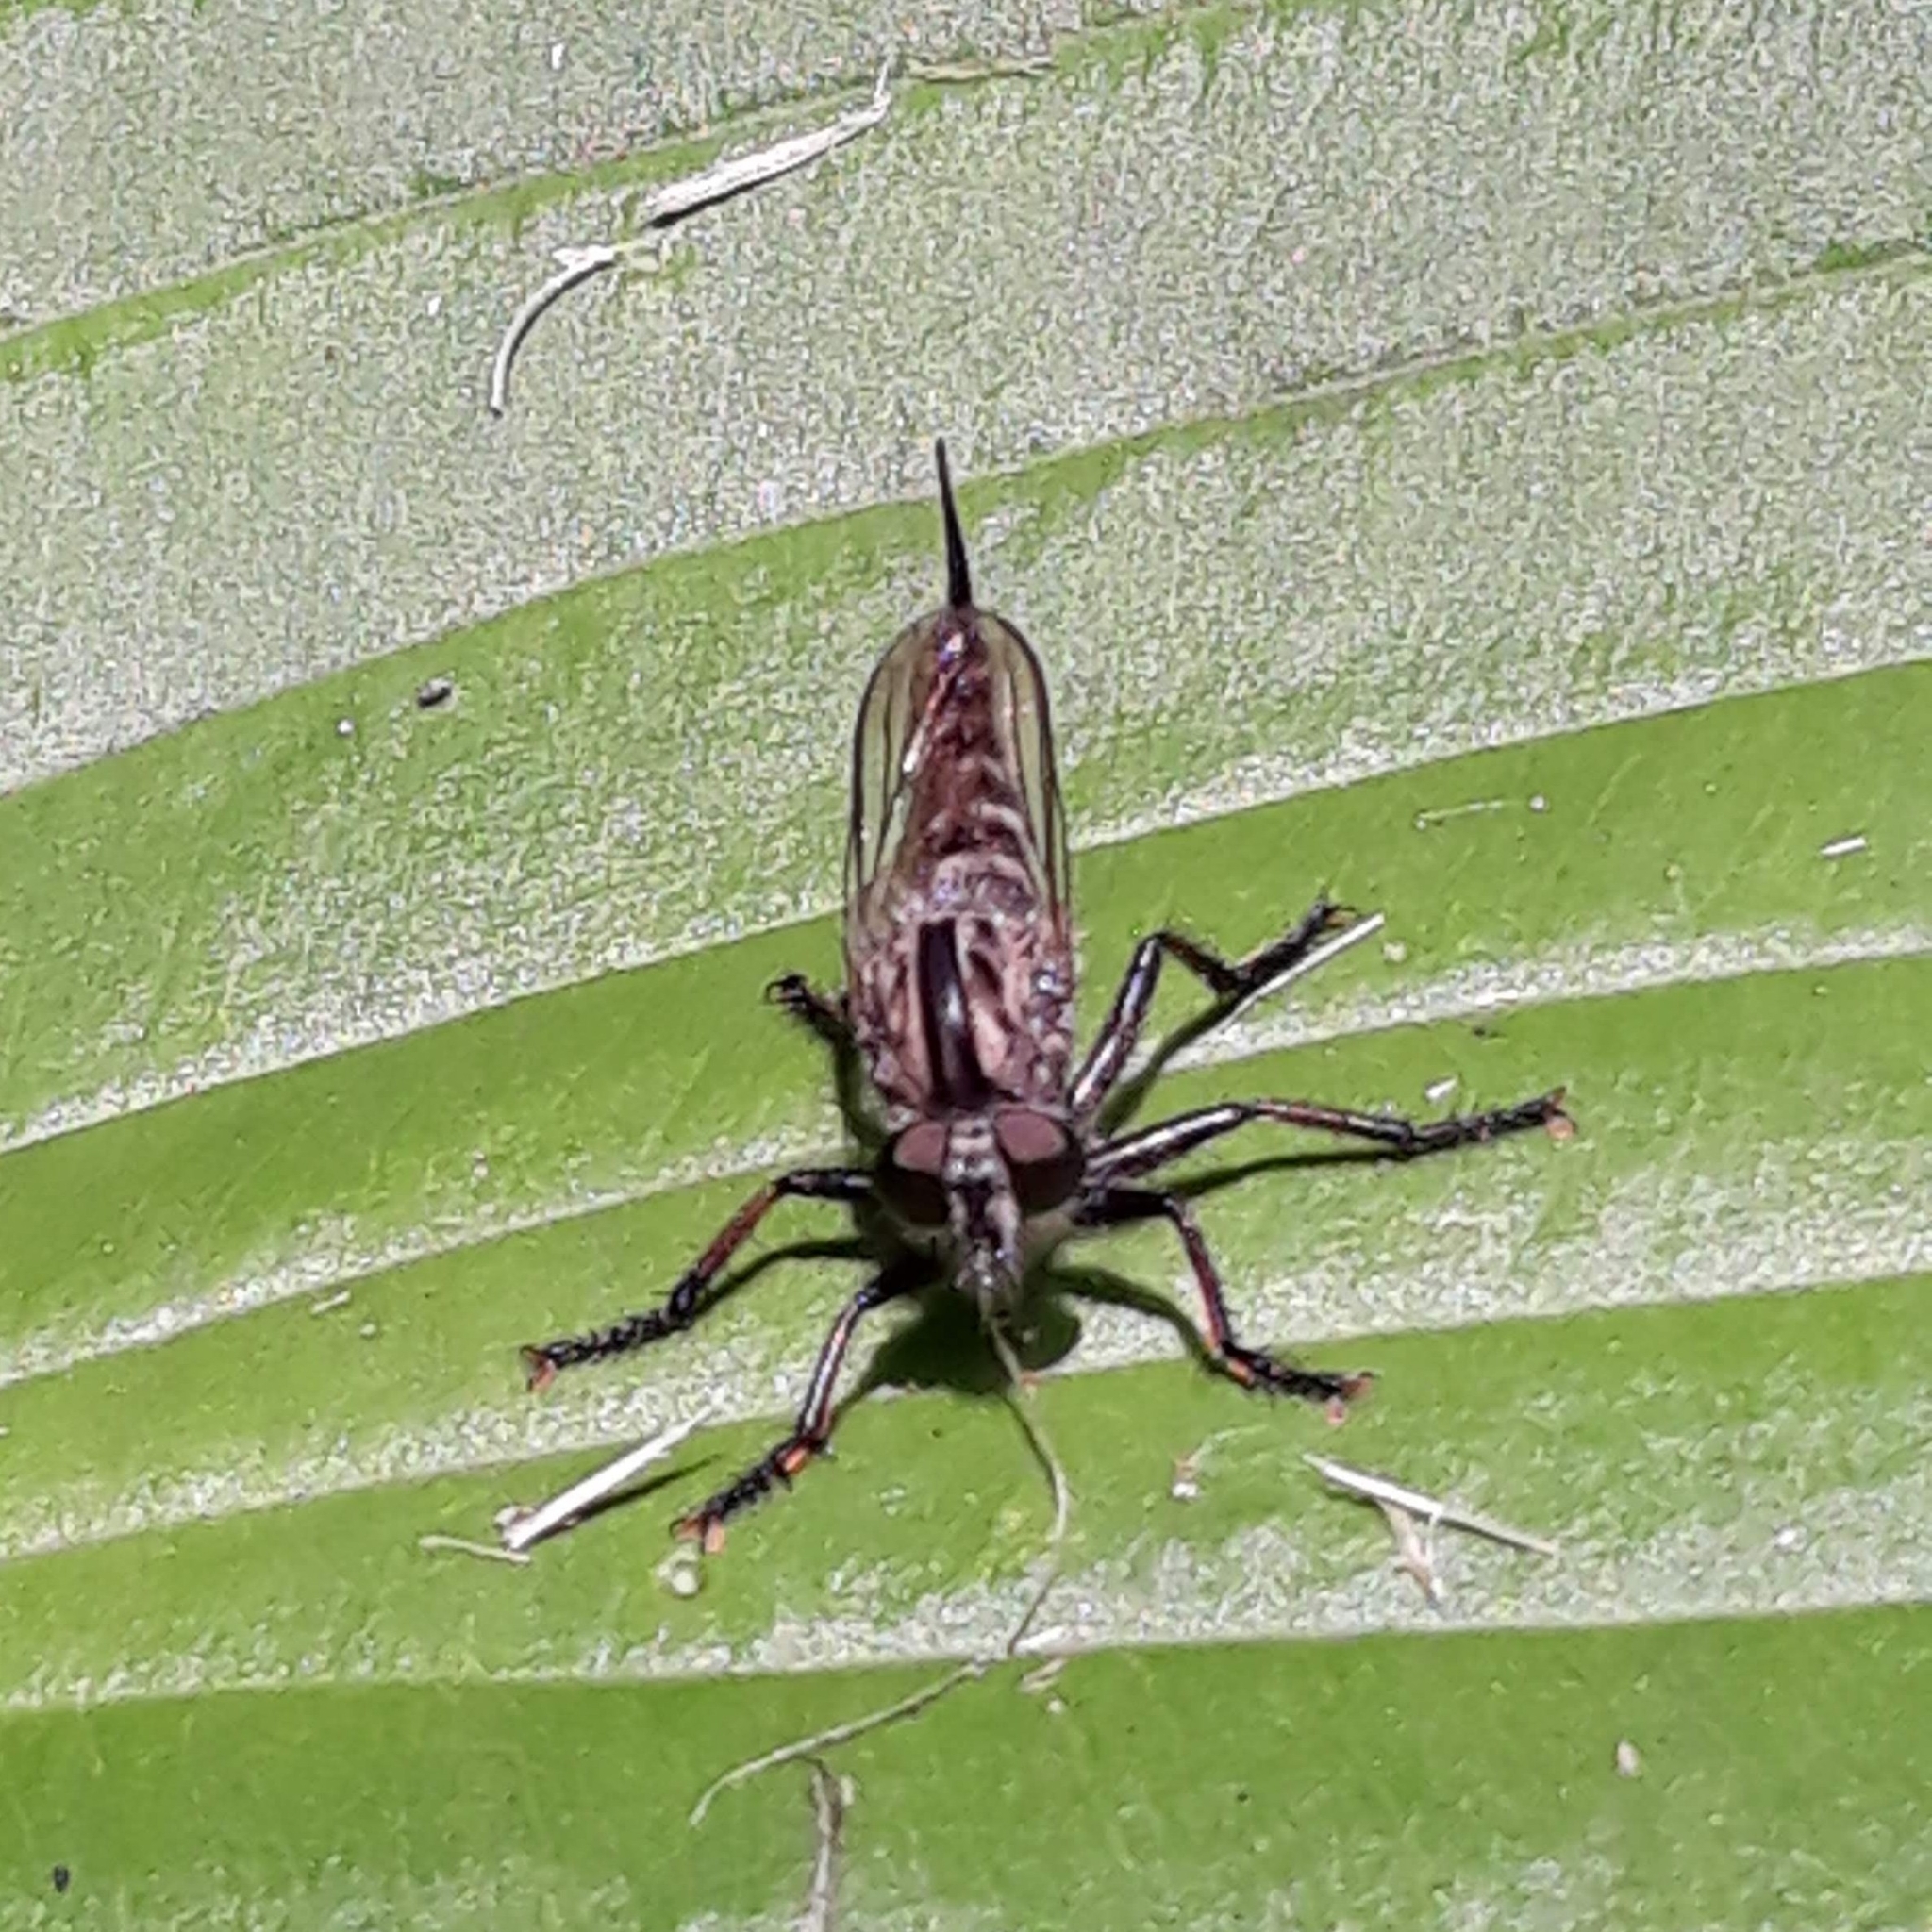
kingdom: Animalia
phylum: Arthropoda
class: Insecta
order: Diptera
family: Asilidae
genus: Efferia
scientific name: Efferia aestuans
